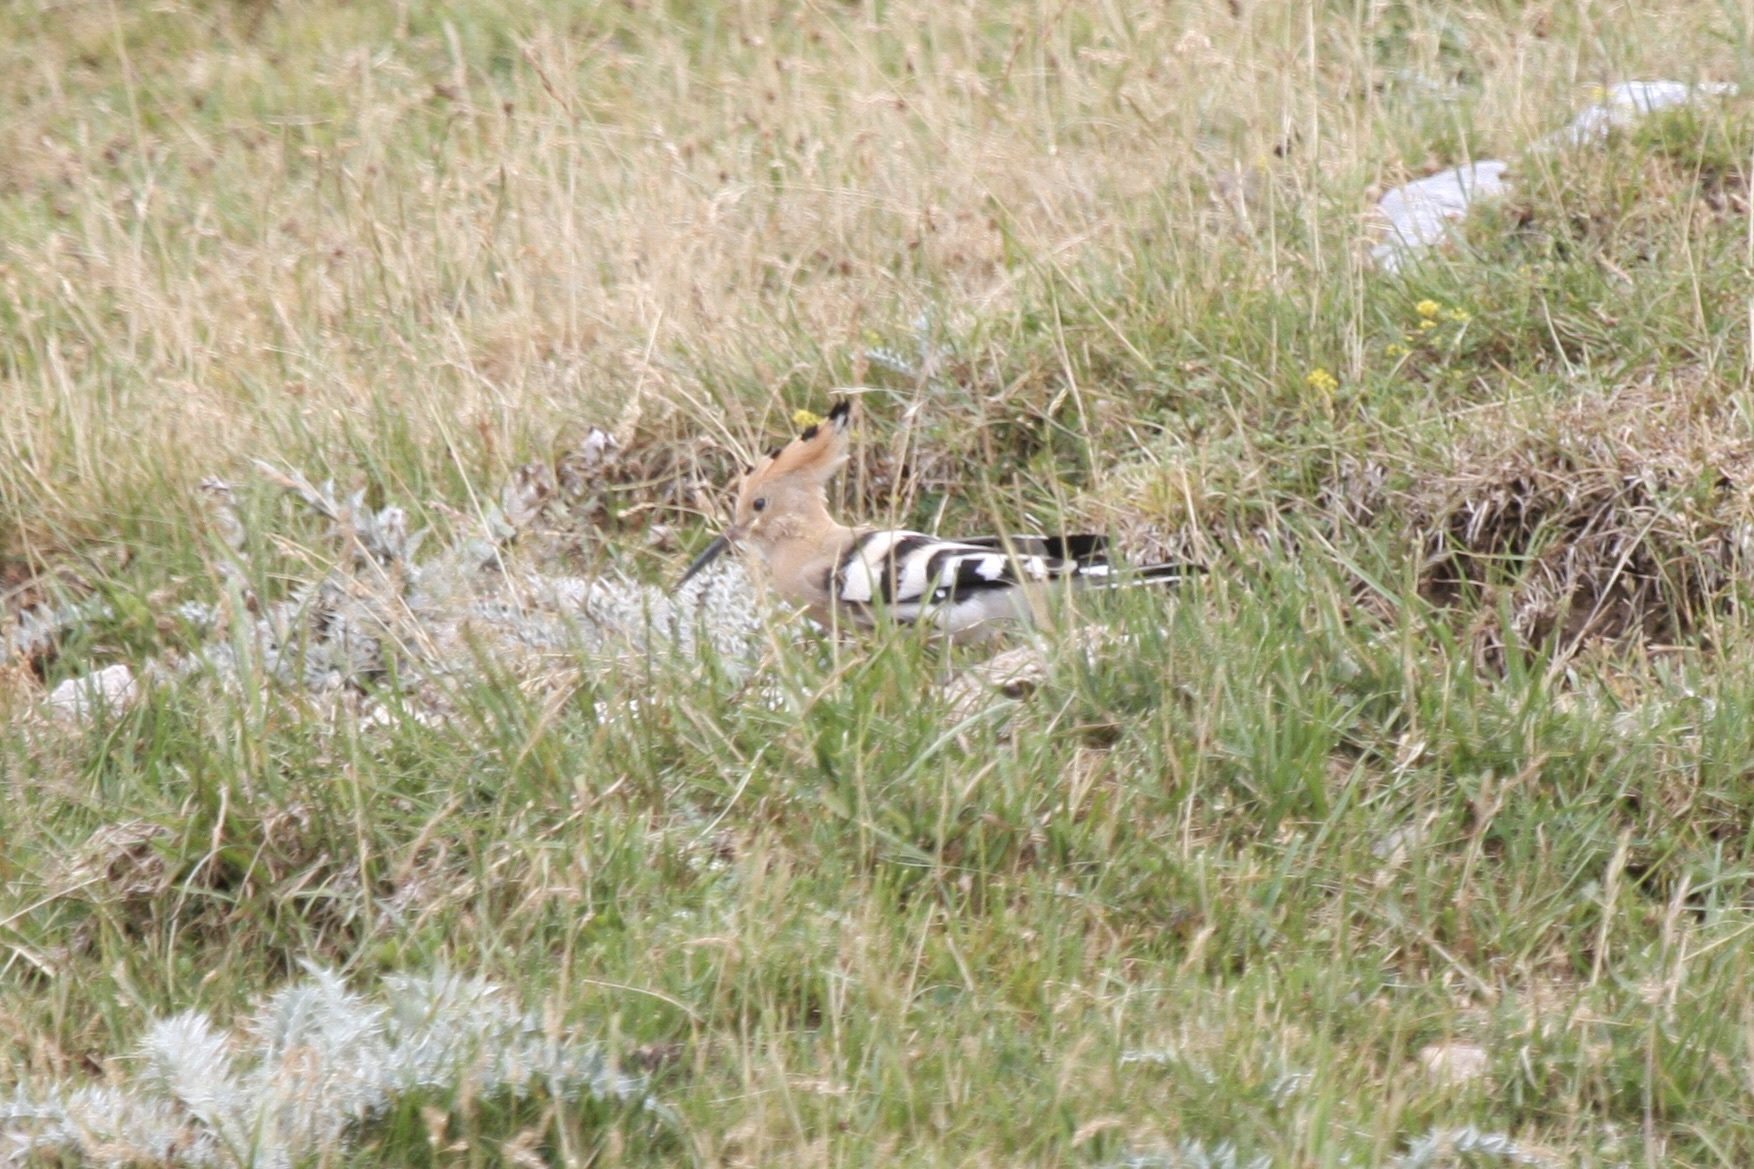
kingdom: Animalia
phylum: Chordata
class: Aves
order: Bucerotiformes
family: Upupidae
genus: Upupa
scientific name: Upupa epops
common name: Eurasian hoopoe
